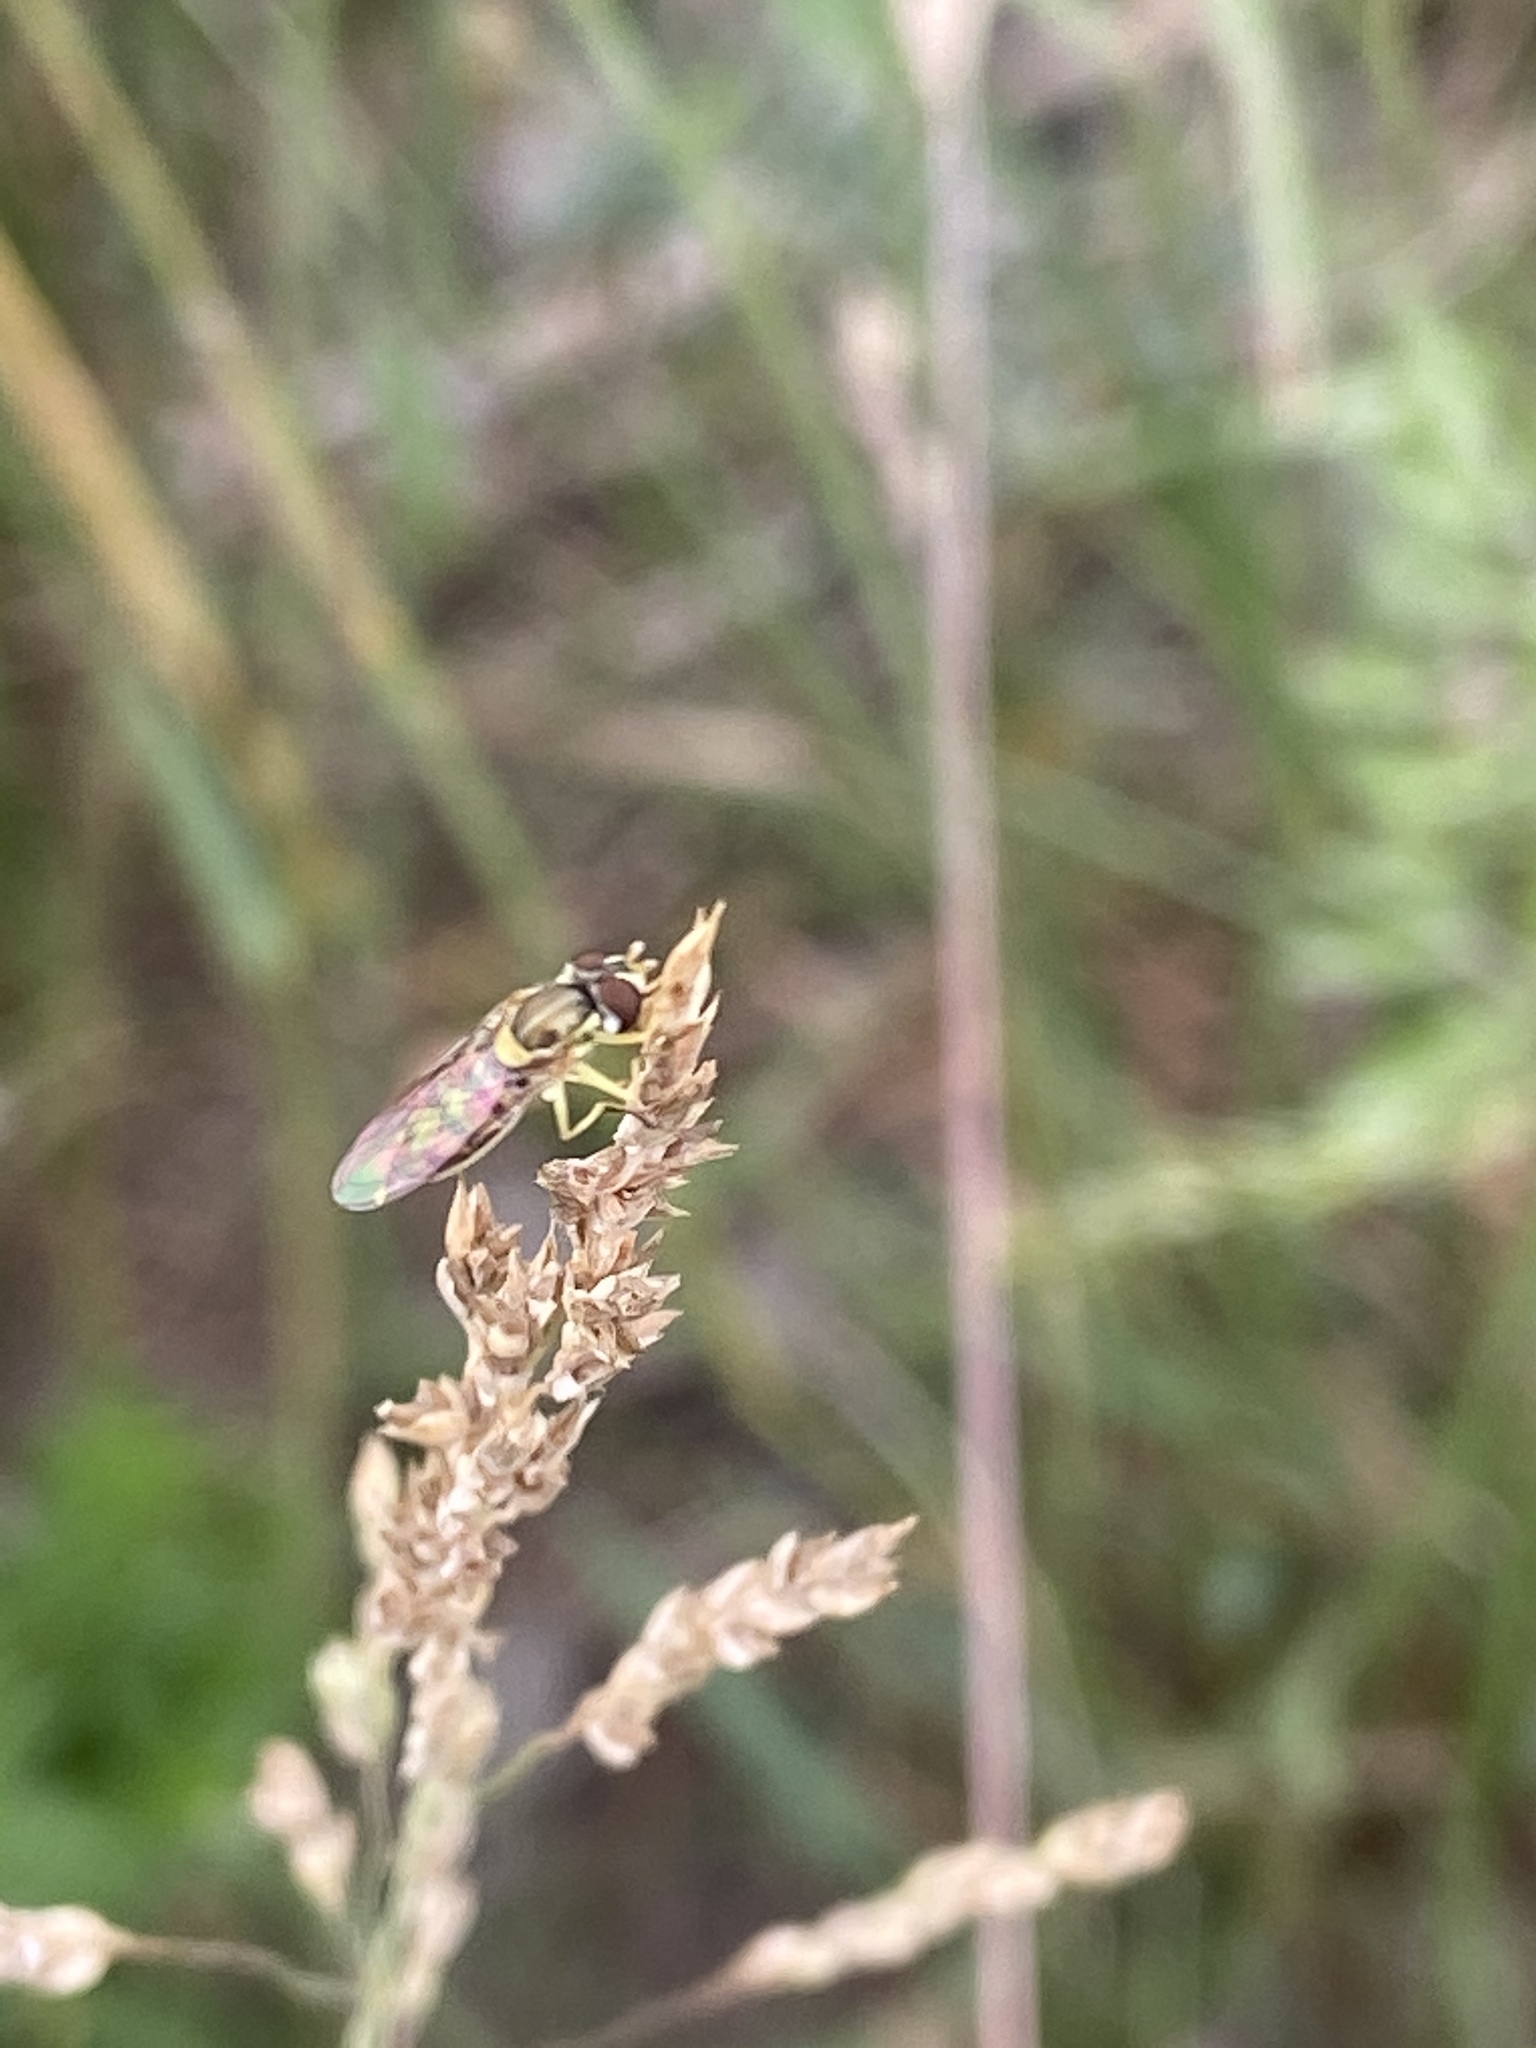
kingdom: Animalia
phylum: Arthropoda
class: Insecta
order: Diptera
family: Syrphidae
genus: Toxomerus
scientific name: Toxomerus marginatus
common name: Syrphid fly
